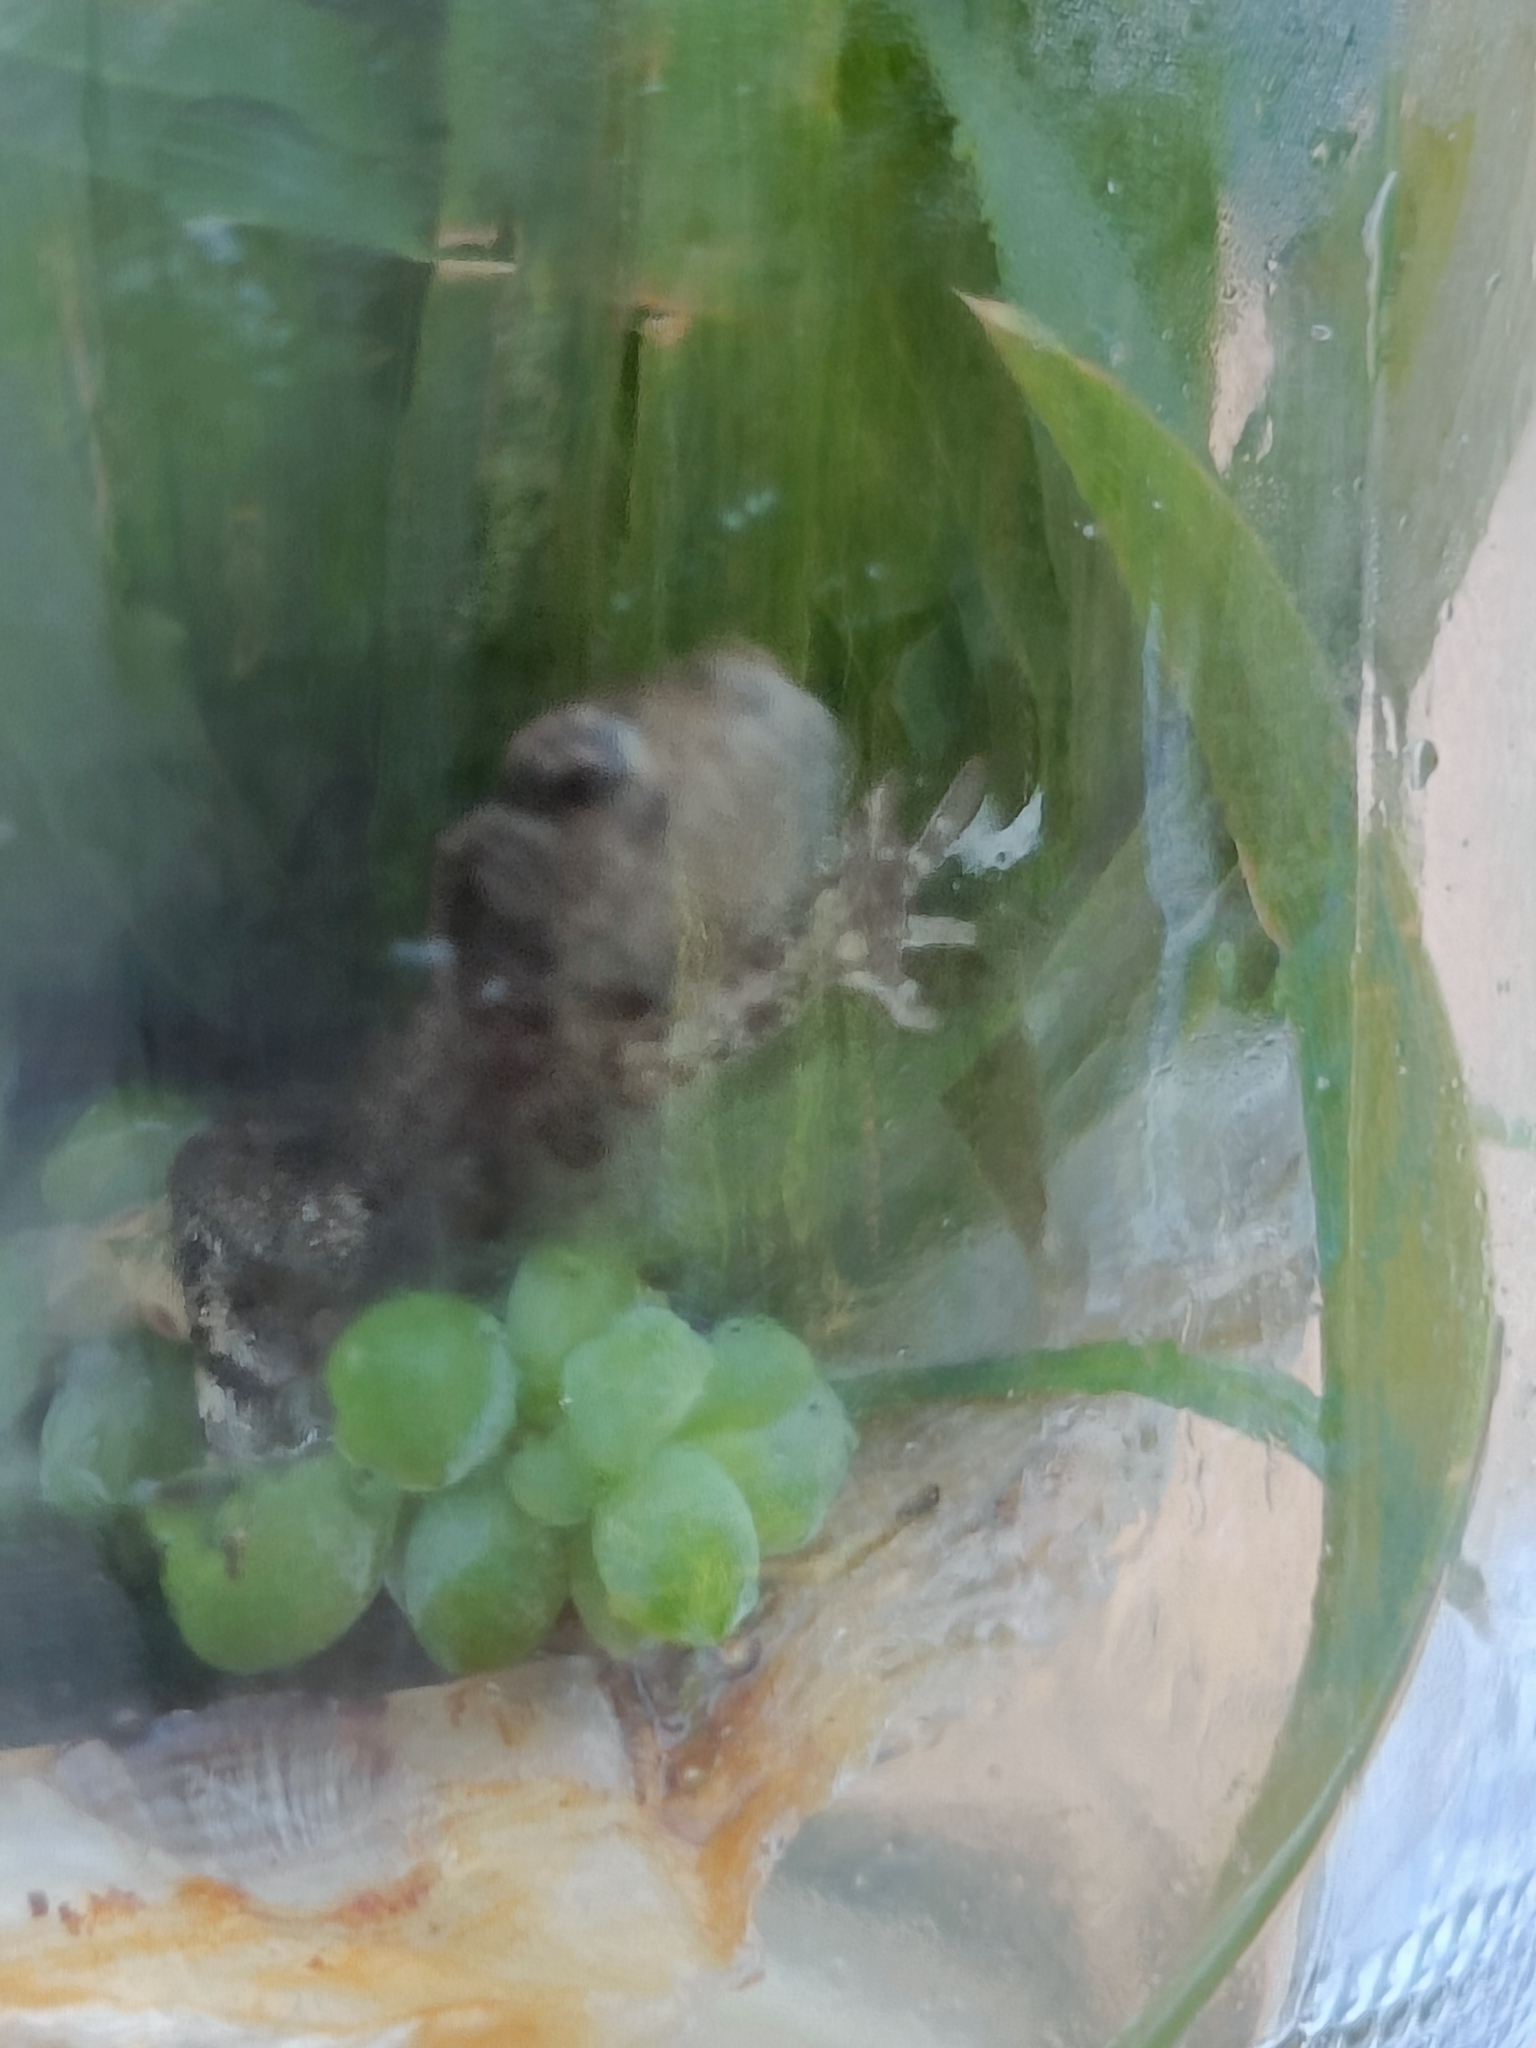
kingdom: Animalia
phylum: Chordata
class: Amphibia
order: Anura
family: Bufonidae
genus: Bufo
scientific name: Bufo bufo
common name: Common toad
